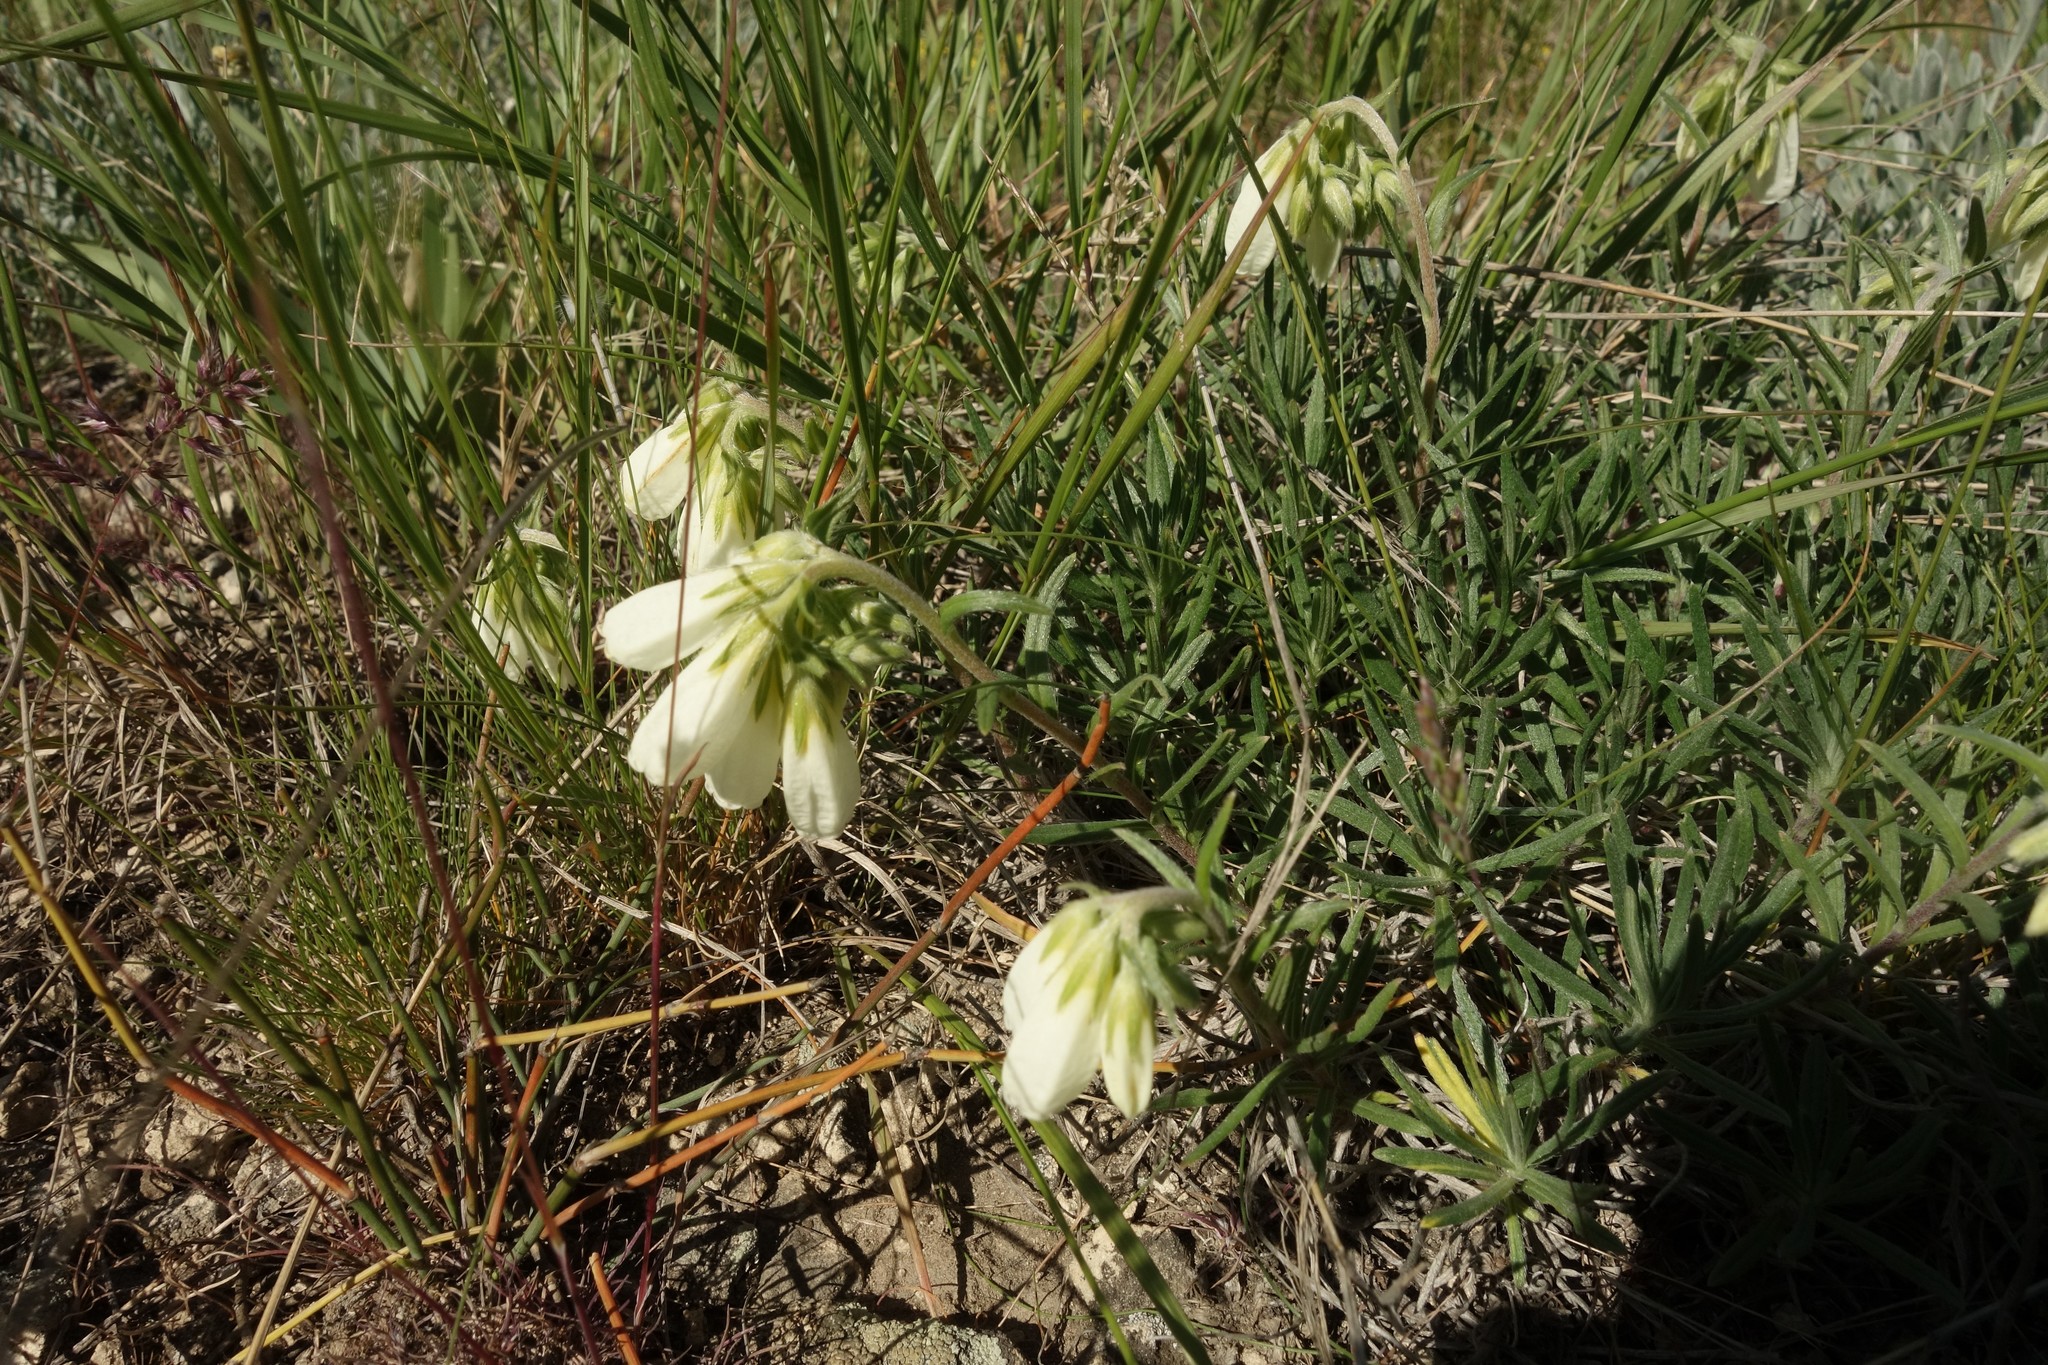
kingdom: Plantae
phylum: Tracheophyta
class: Magnoliopsida
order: Boraginales
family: Boraginaceae
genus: Onosma
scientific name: Onosma simplicissima
